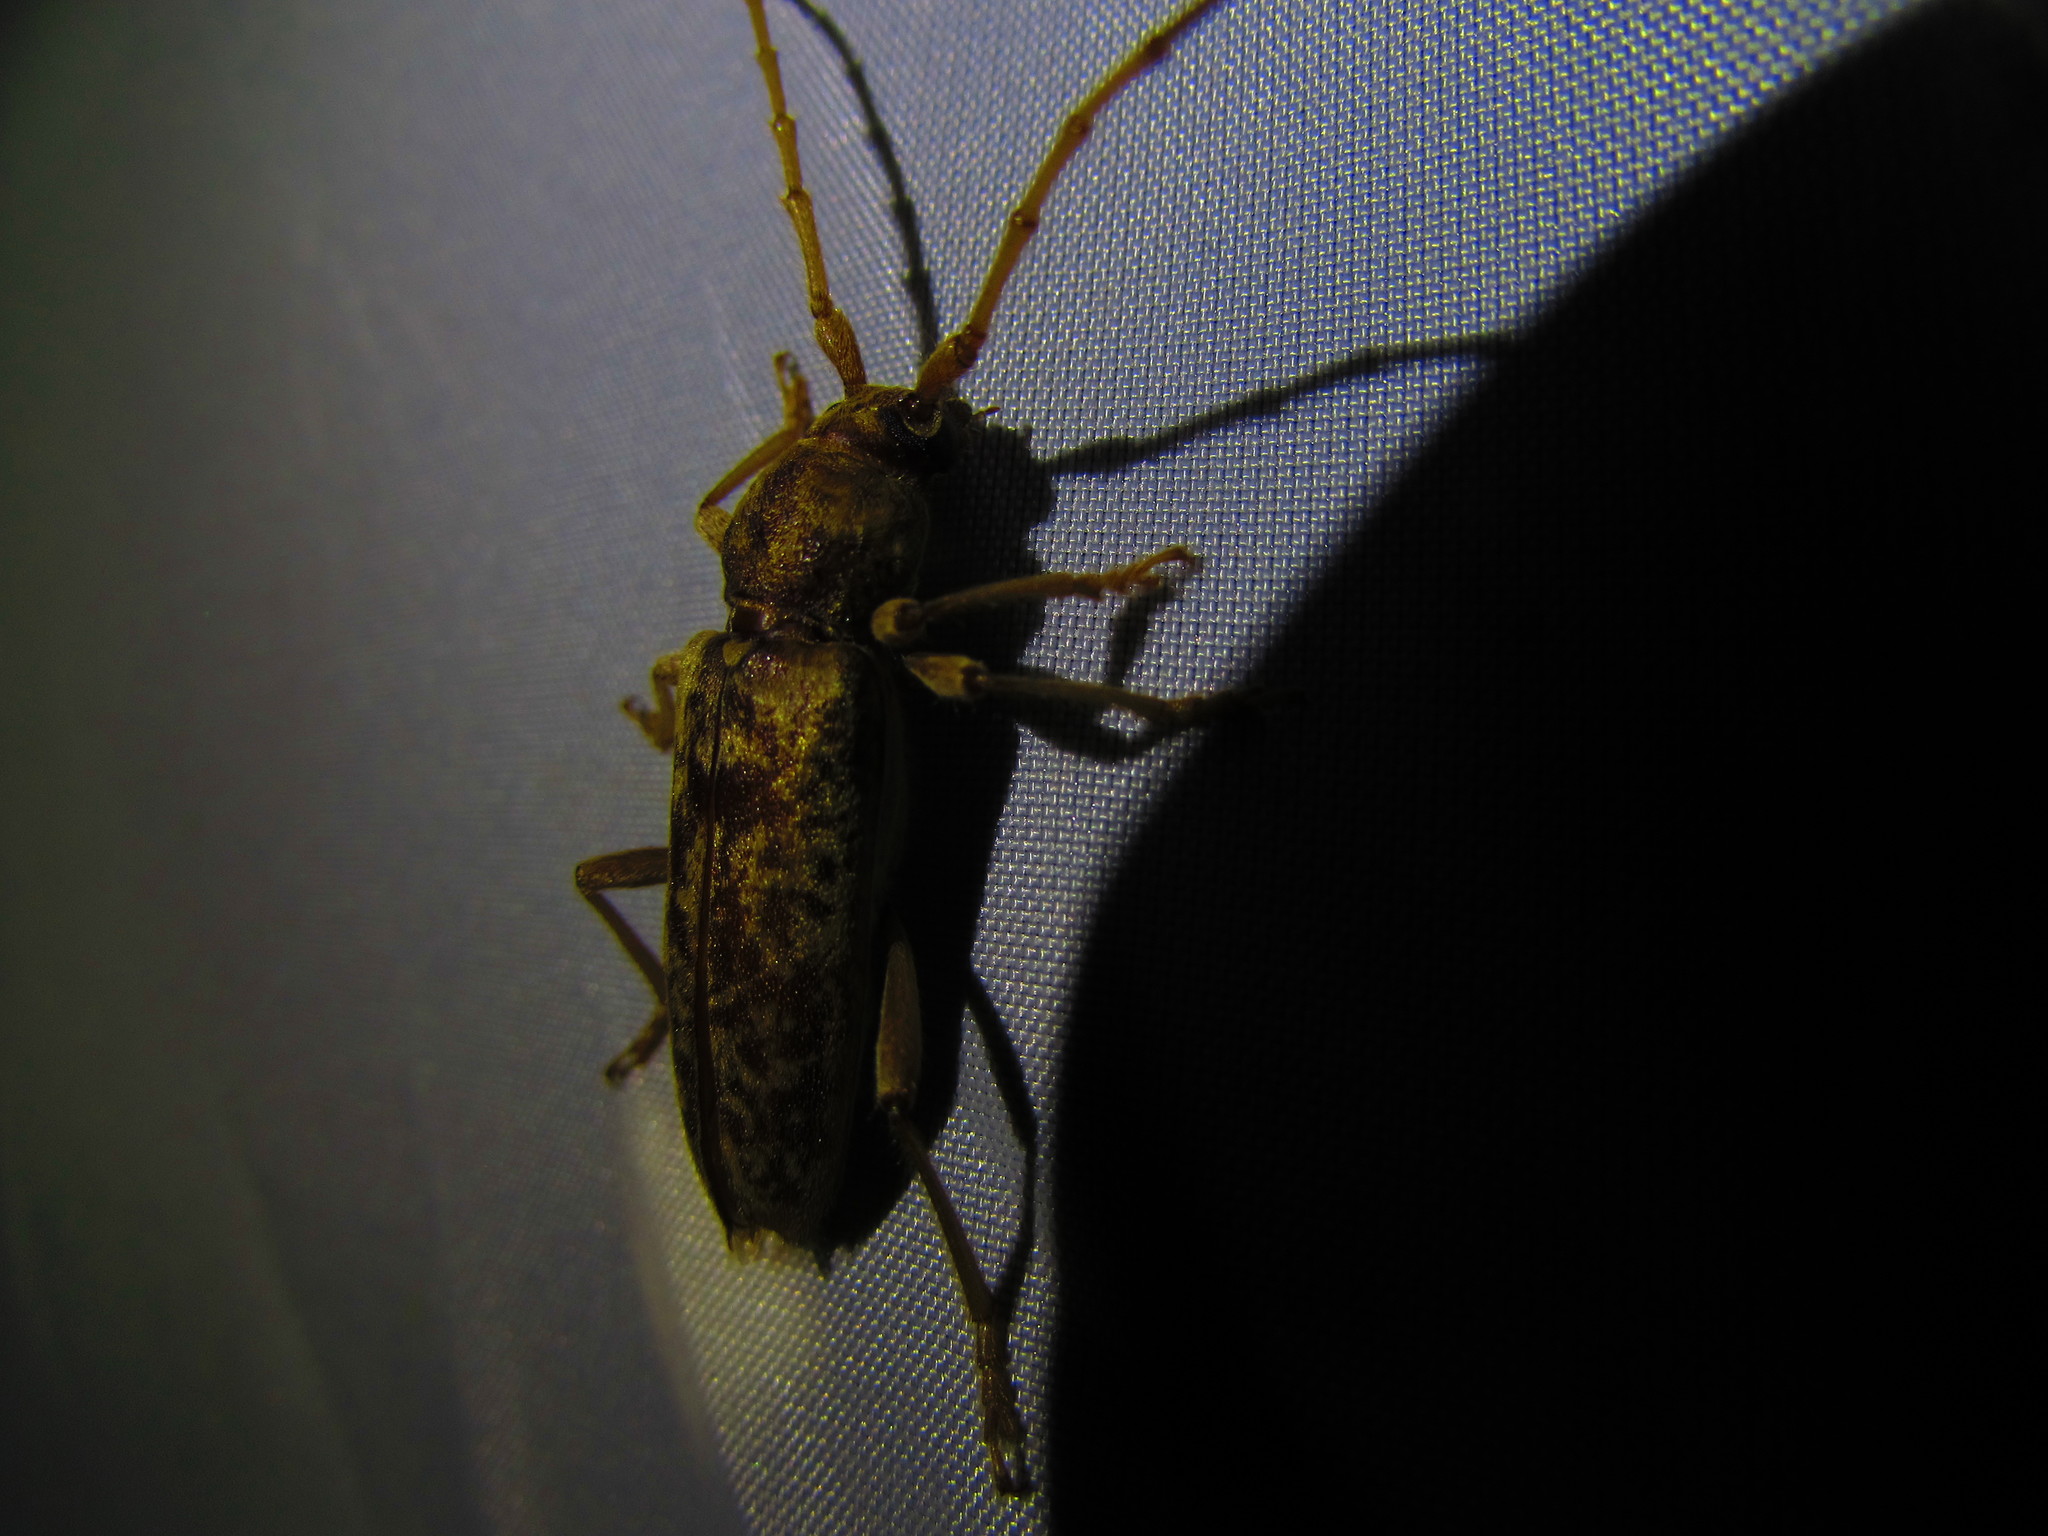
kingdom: Animalia
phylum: Arthropoda
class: Insecta
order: Coleoptera
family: Cerambycidae
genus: Enaphalodes
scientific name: Enaphalodes rufulus
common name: Red oak borer
